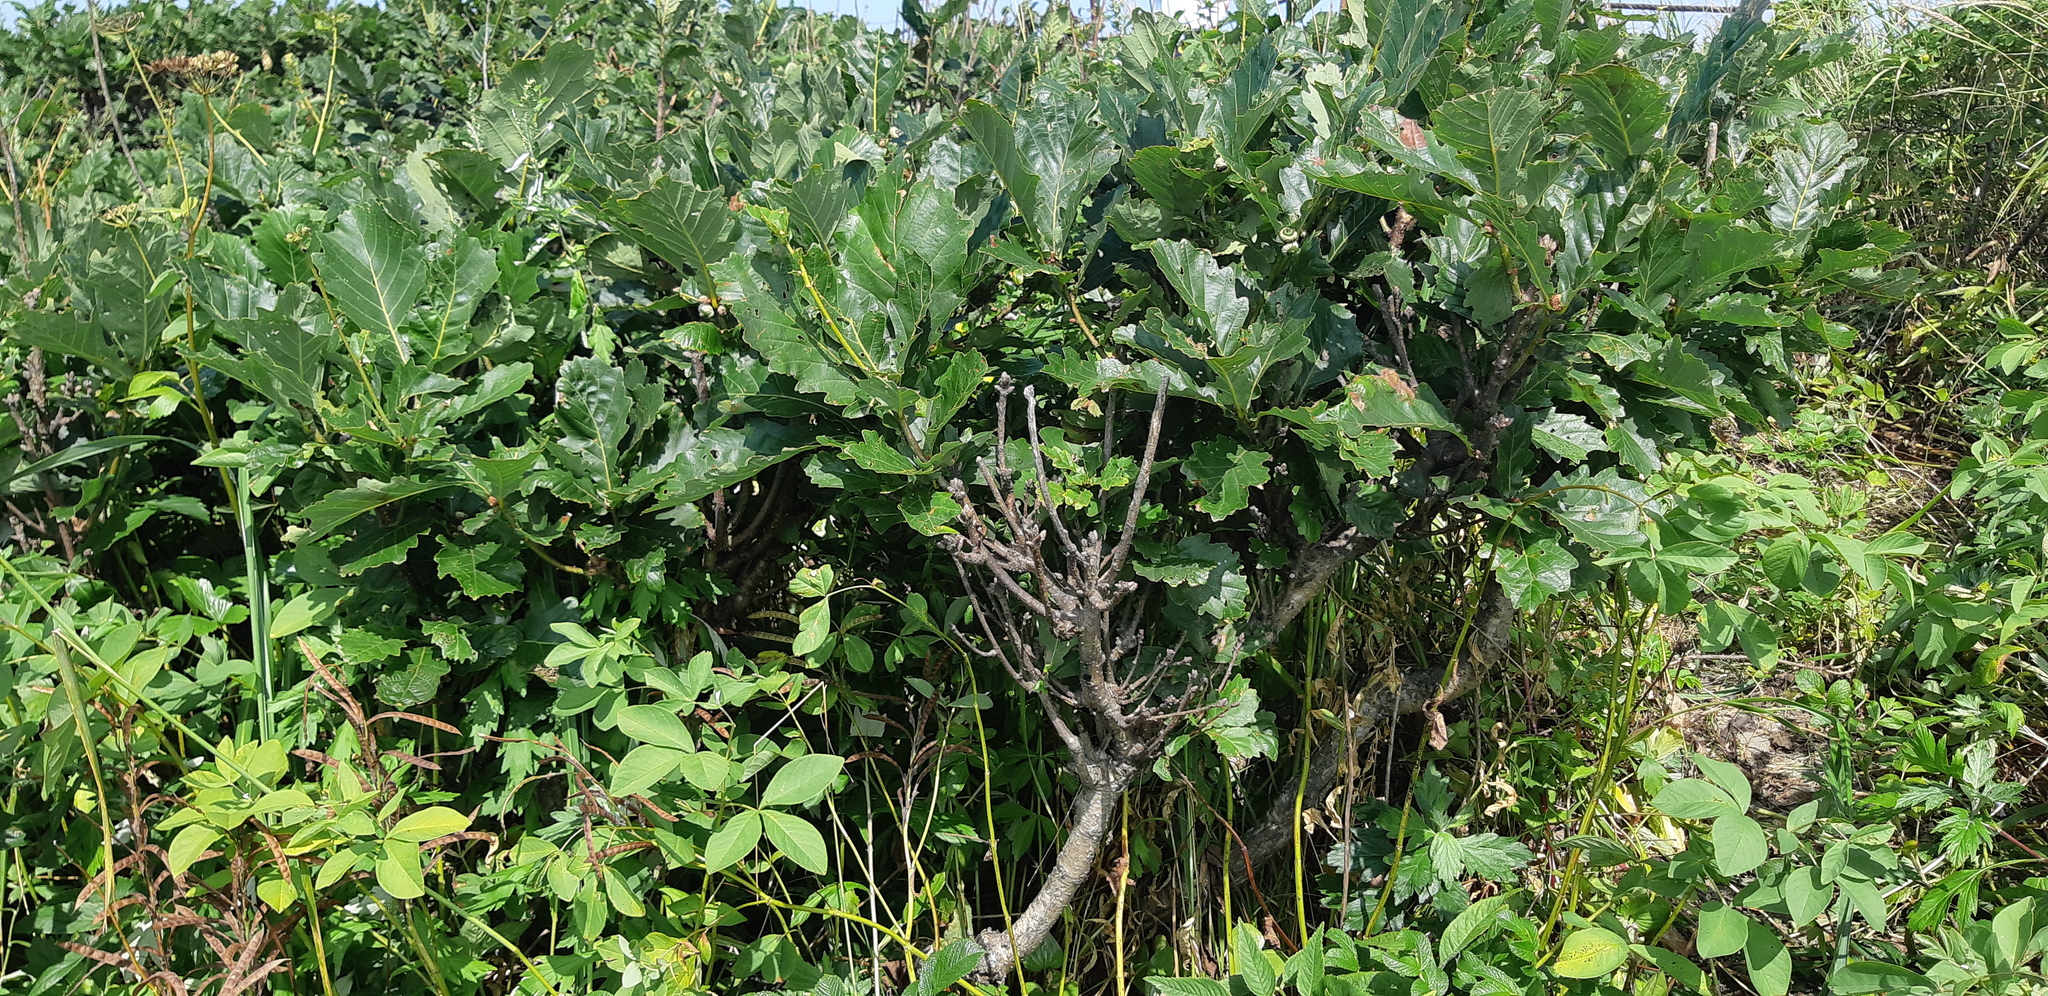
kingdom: Plantae
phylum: Tracheophyta
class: Magnoliopsida
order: Fagales
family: Fagaceae
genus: Quercus
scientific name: Quercus mongolica
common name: Mongolian oak
